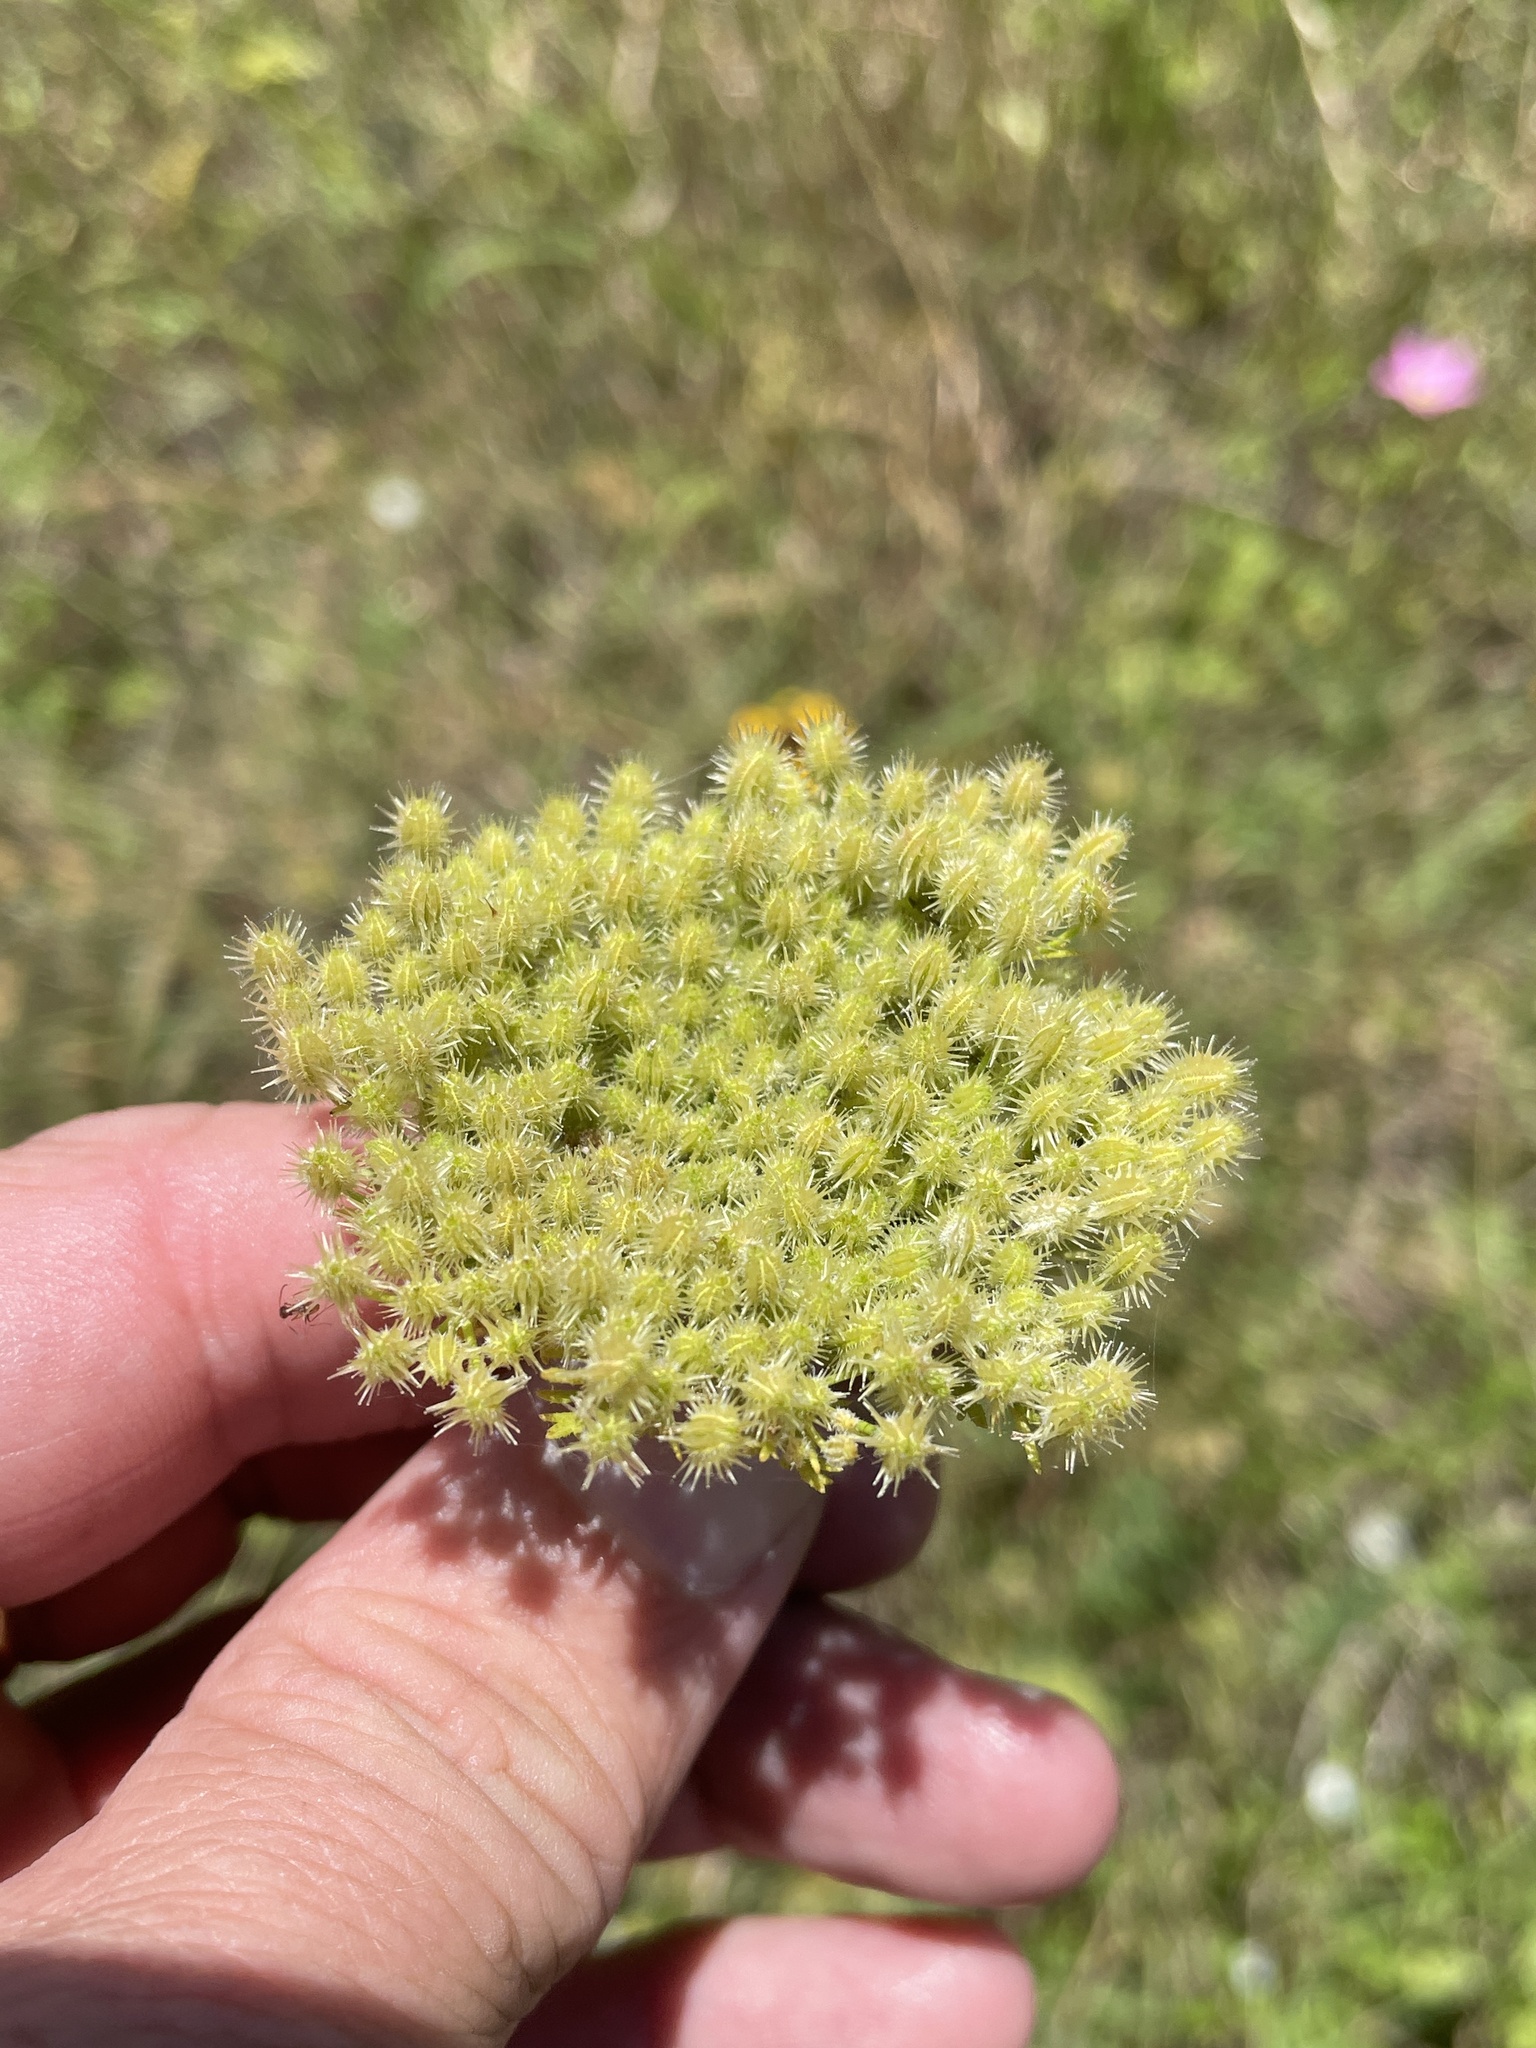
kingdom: Plantae
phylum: Tracheophyta
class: Magnoliopsida
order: Apiales
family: Apiaceae
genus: Daucus
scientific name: Daucus pusillus
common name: Southwest wild carrot
